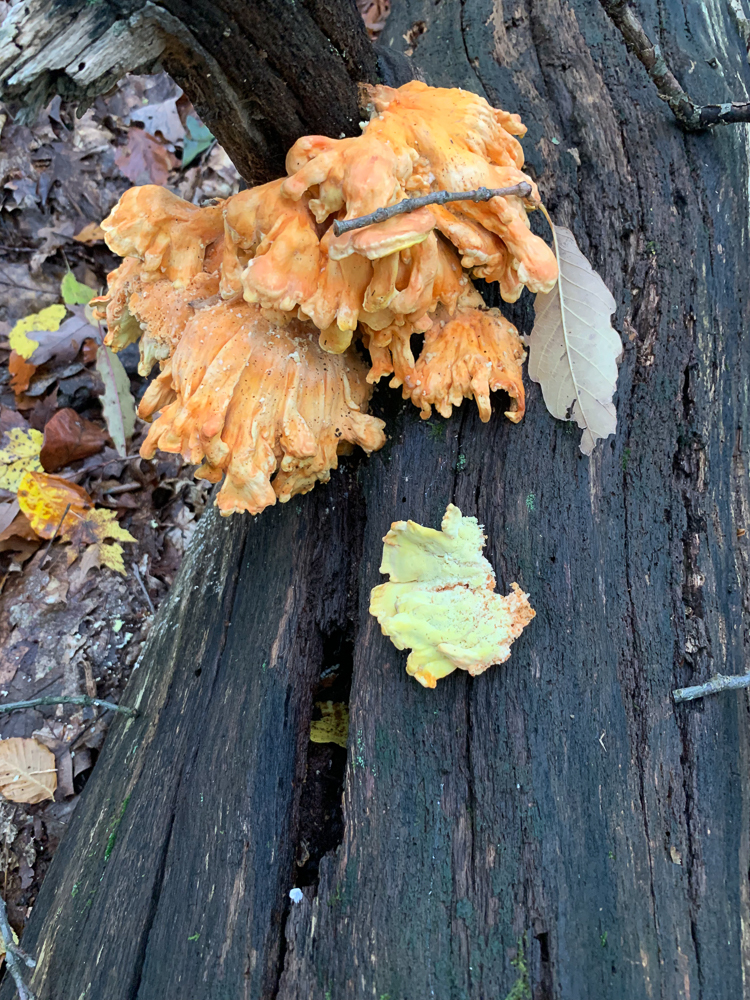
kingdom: Fungi
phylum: Basidiomycota
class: Agaricomycetes
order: Polyporales
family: Laetiporaceae
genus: Laetiporus
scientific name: Laetiporus sulphureus
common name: Chicken of the woods
